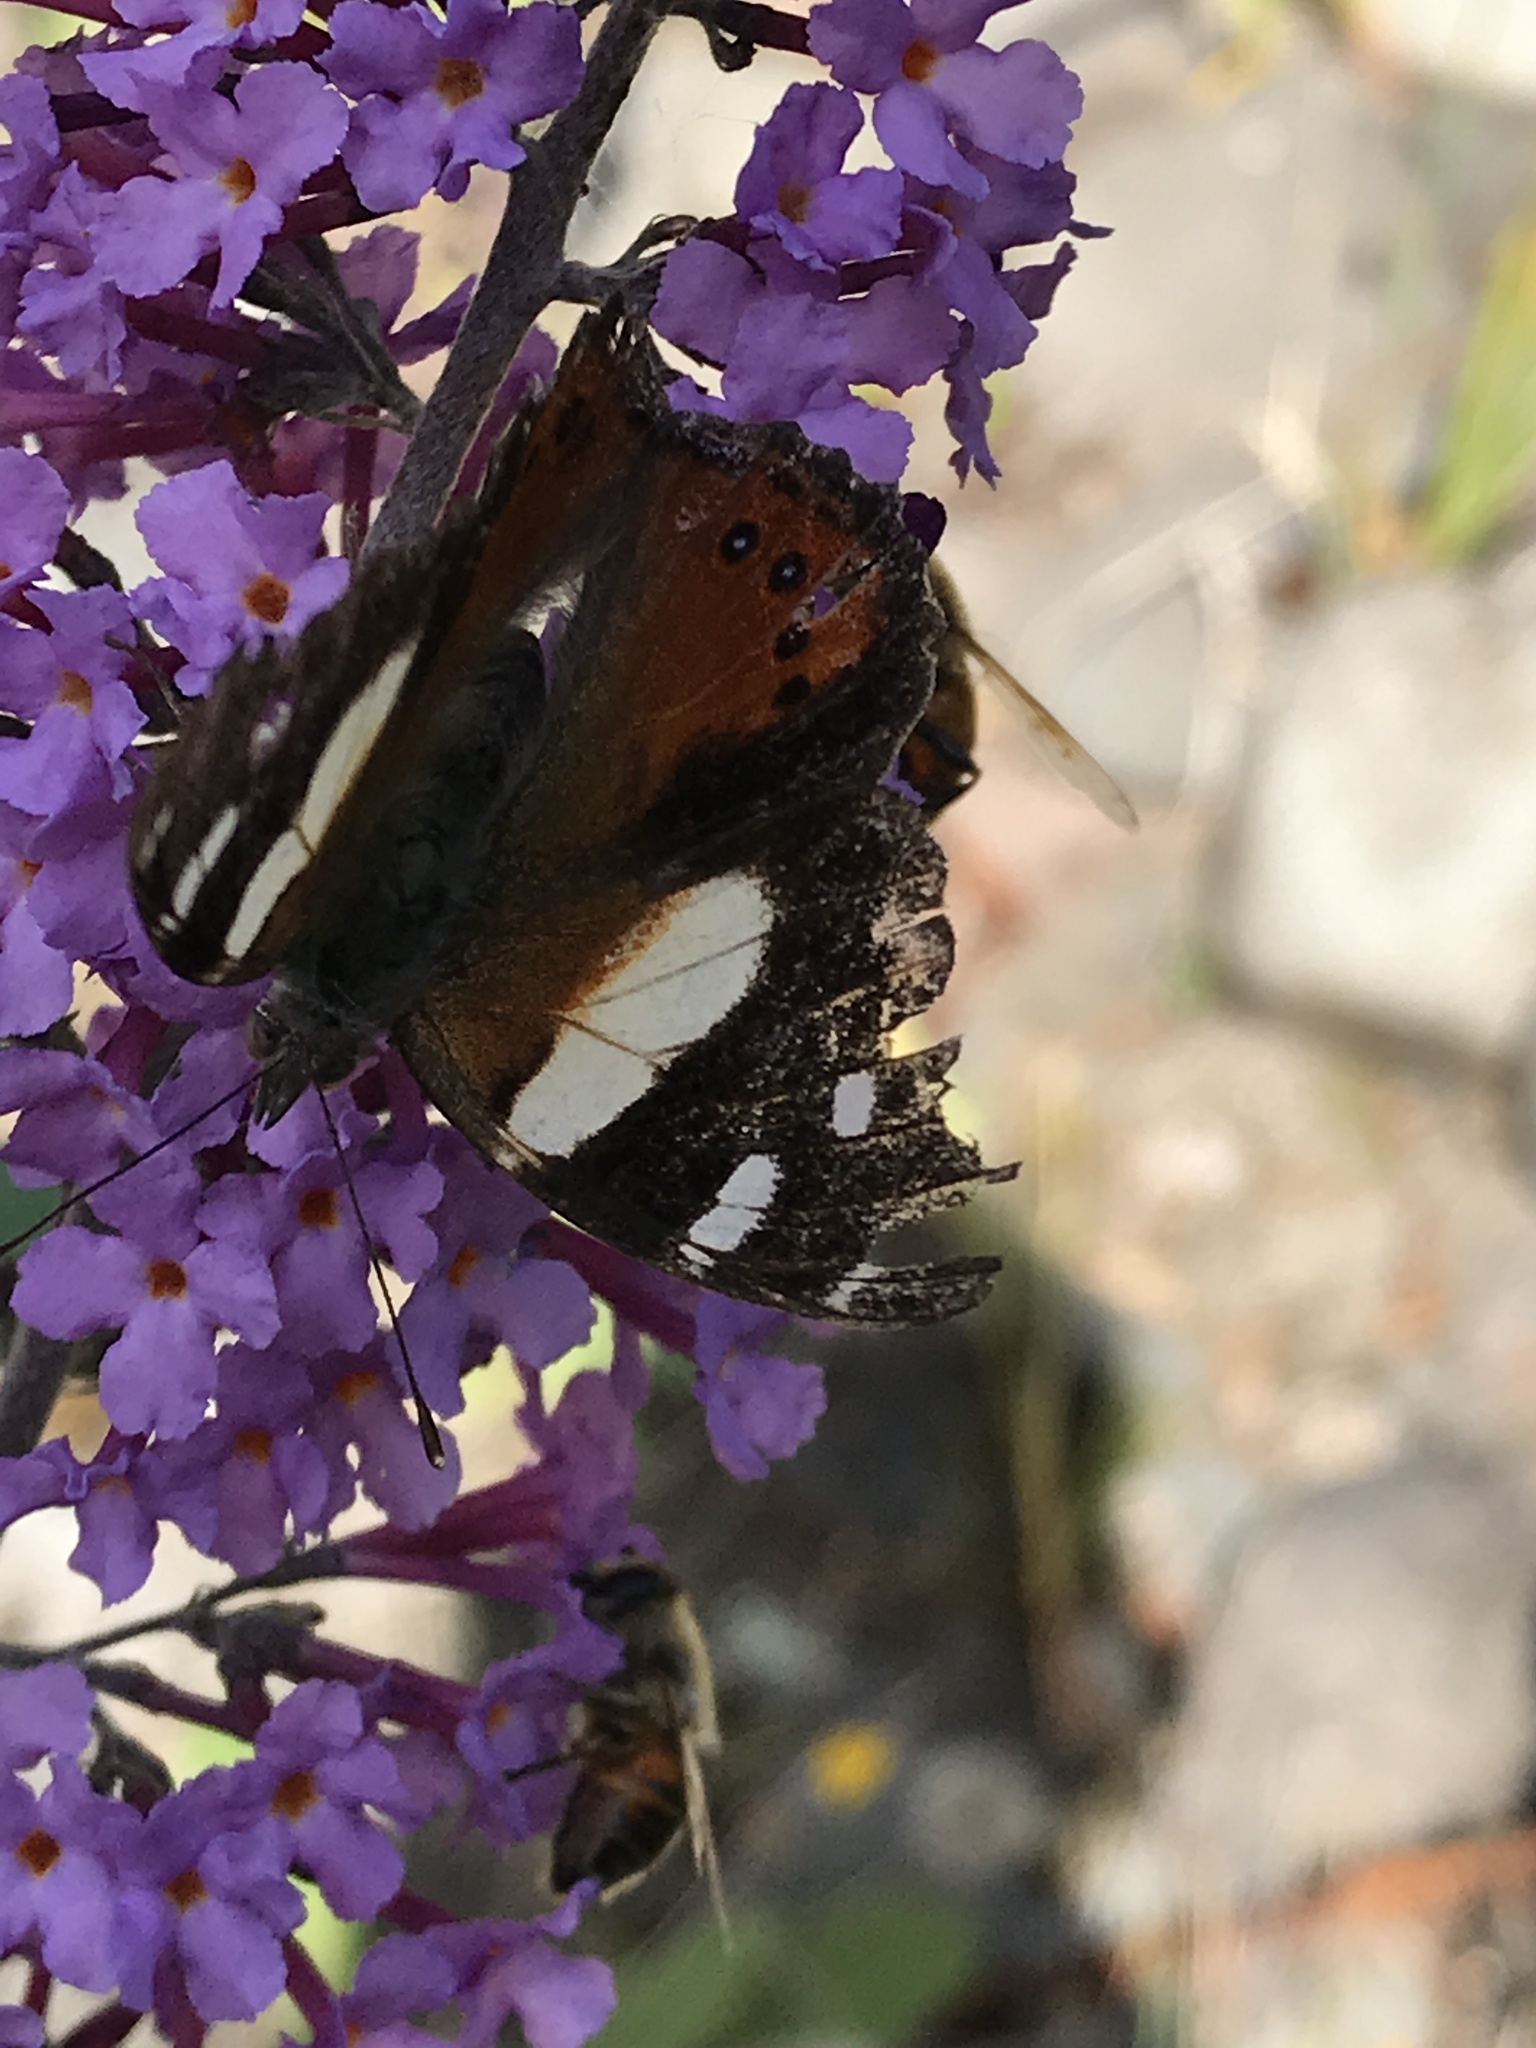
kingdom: Animalia
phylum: Arthropoda
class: Insecta
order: Lepidoptera
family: Nymphalidae
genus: Vanessa
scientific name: Vanessa itea
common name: Yellow admiral
